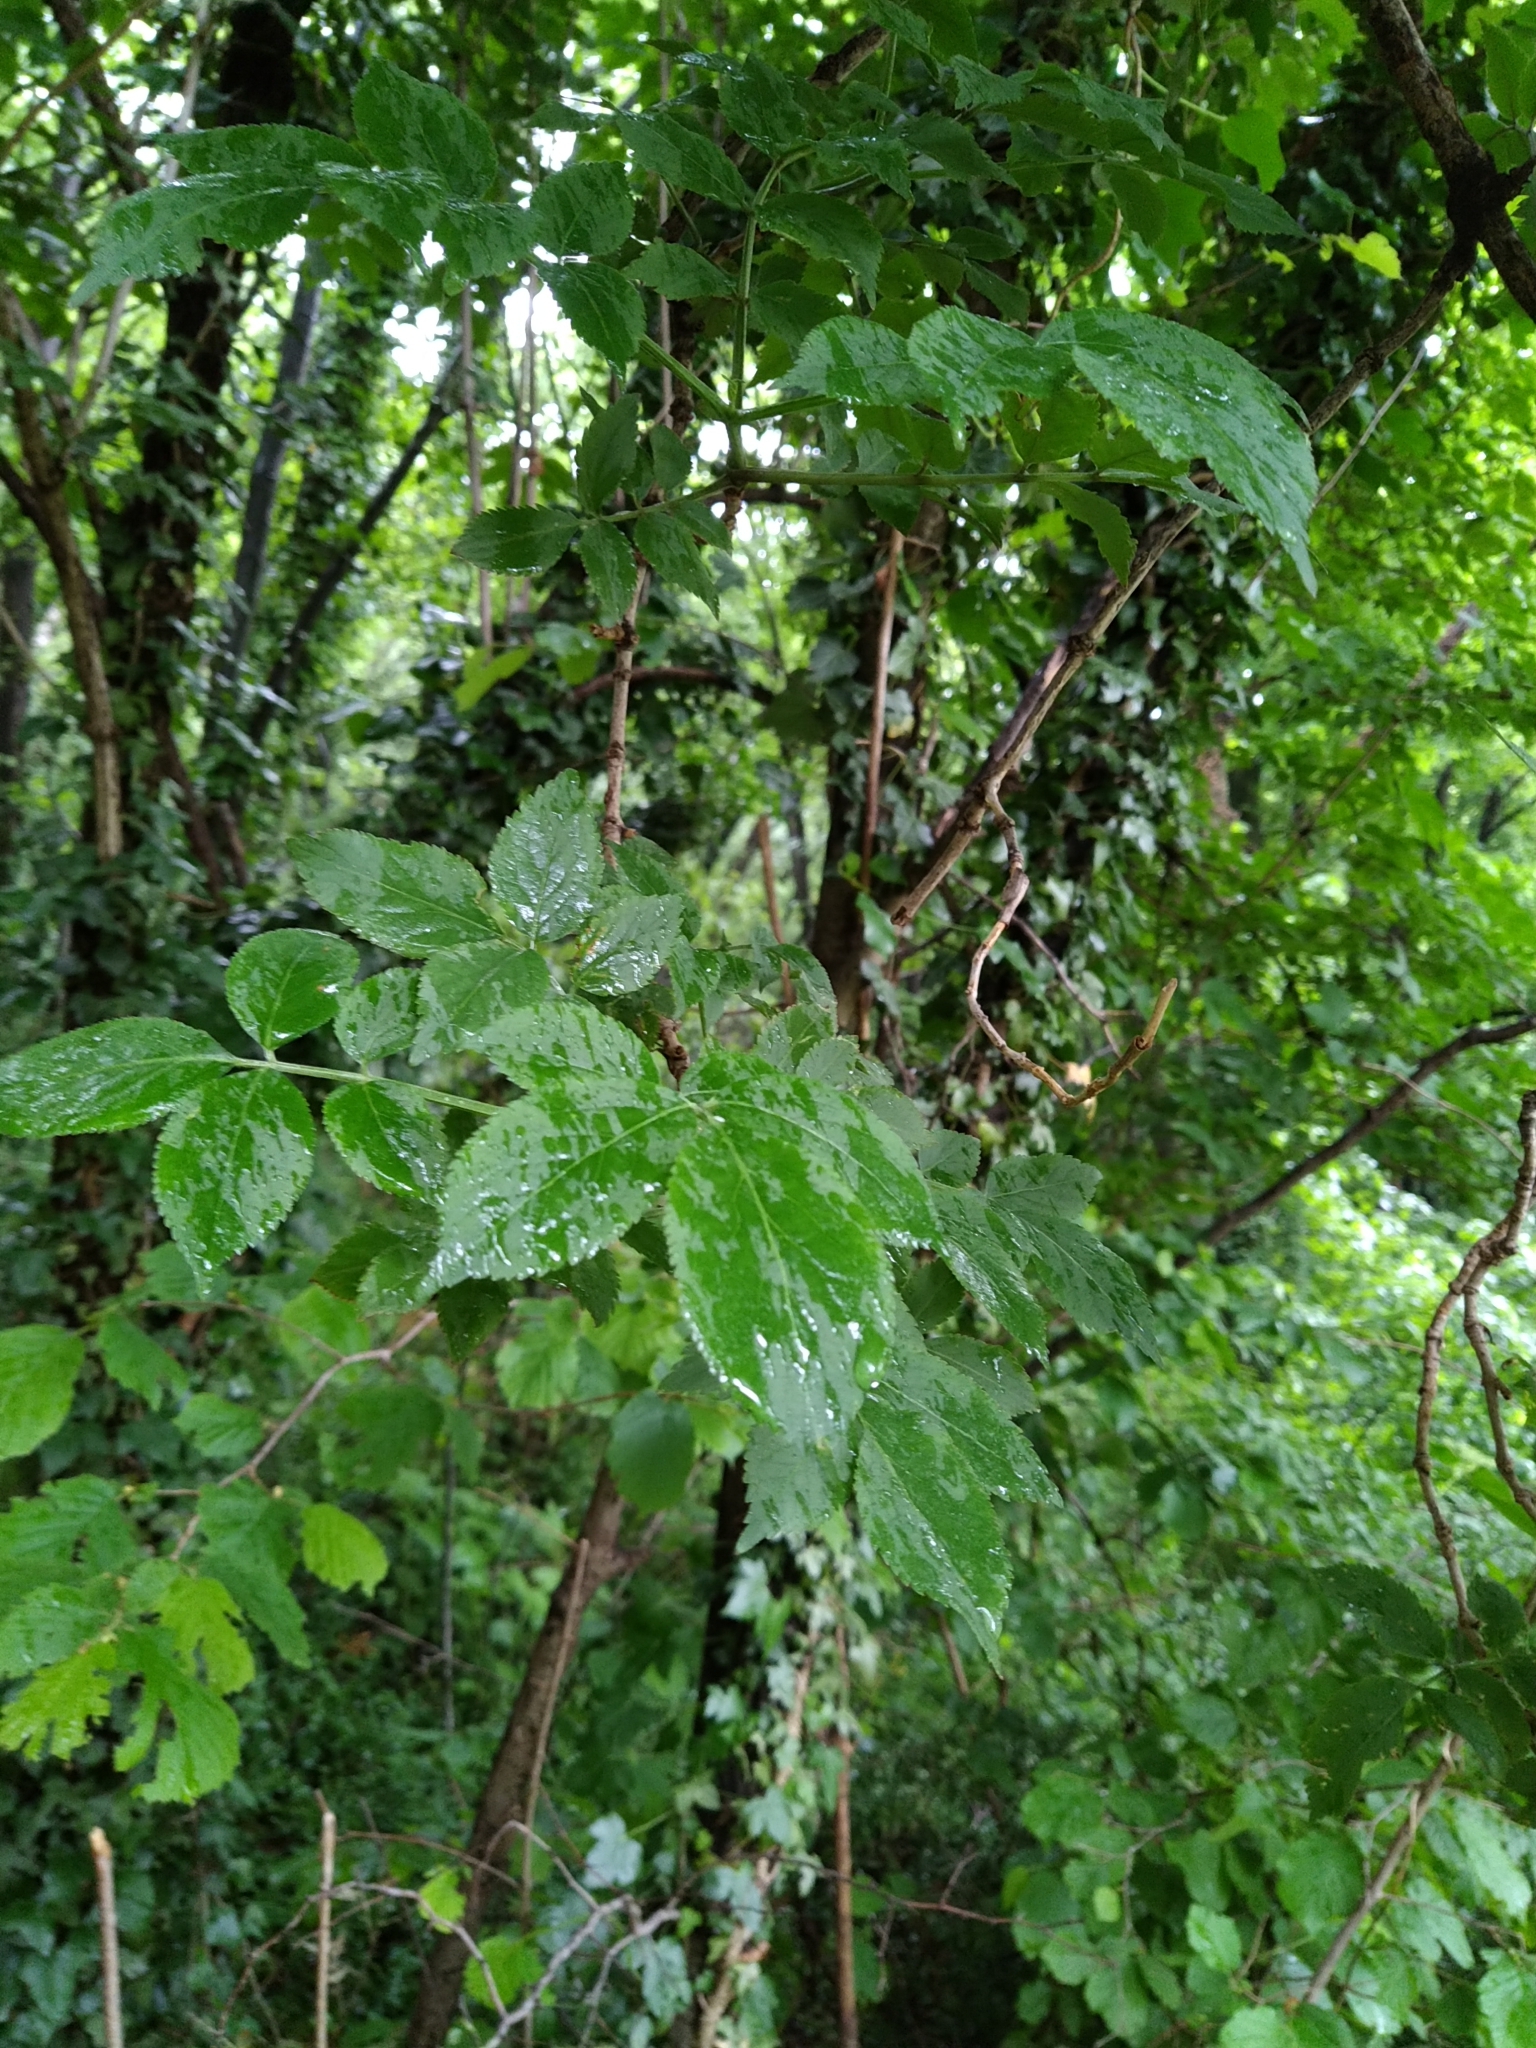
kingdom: Plantae
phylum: Tracheophyta
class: Magnoliopsida
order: Dipsacales
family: Viburnaceae
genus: Sambucus
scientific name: Sambucus nigra
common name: Elder
